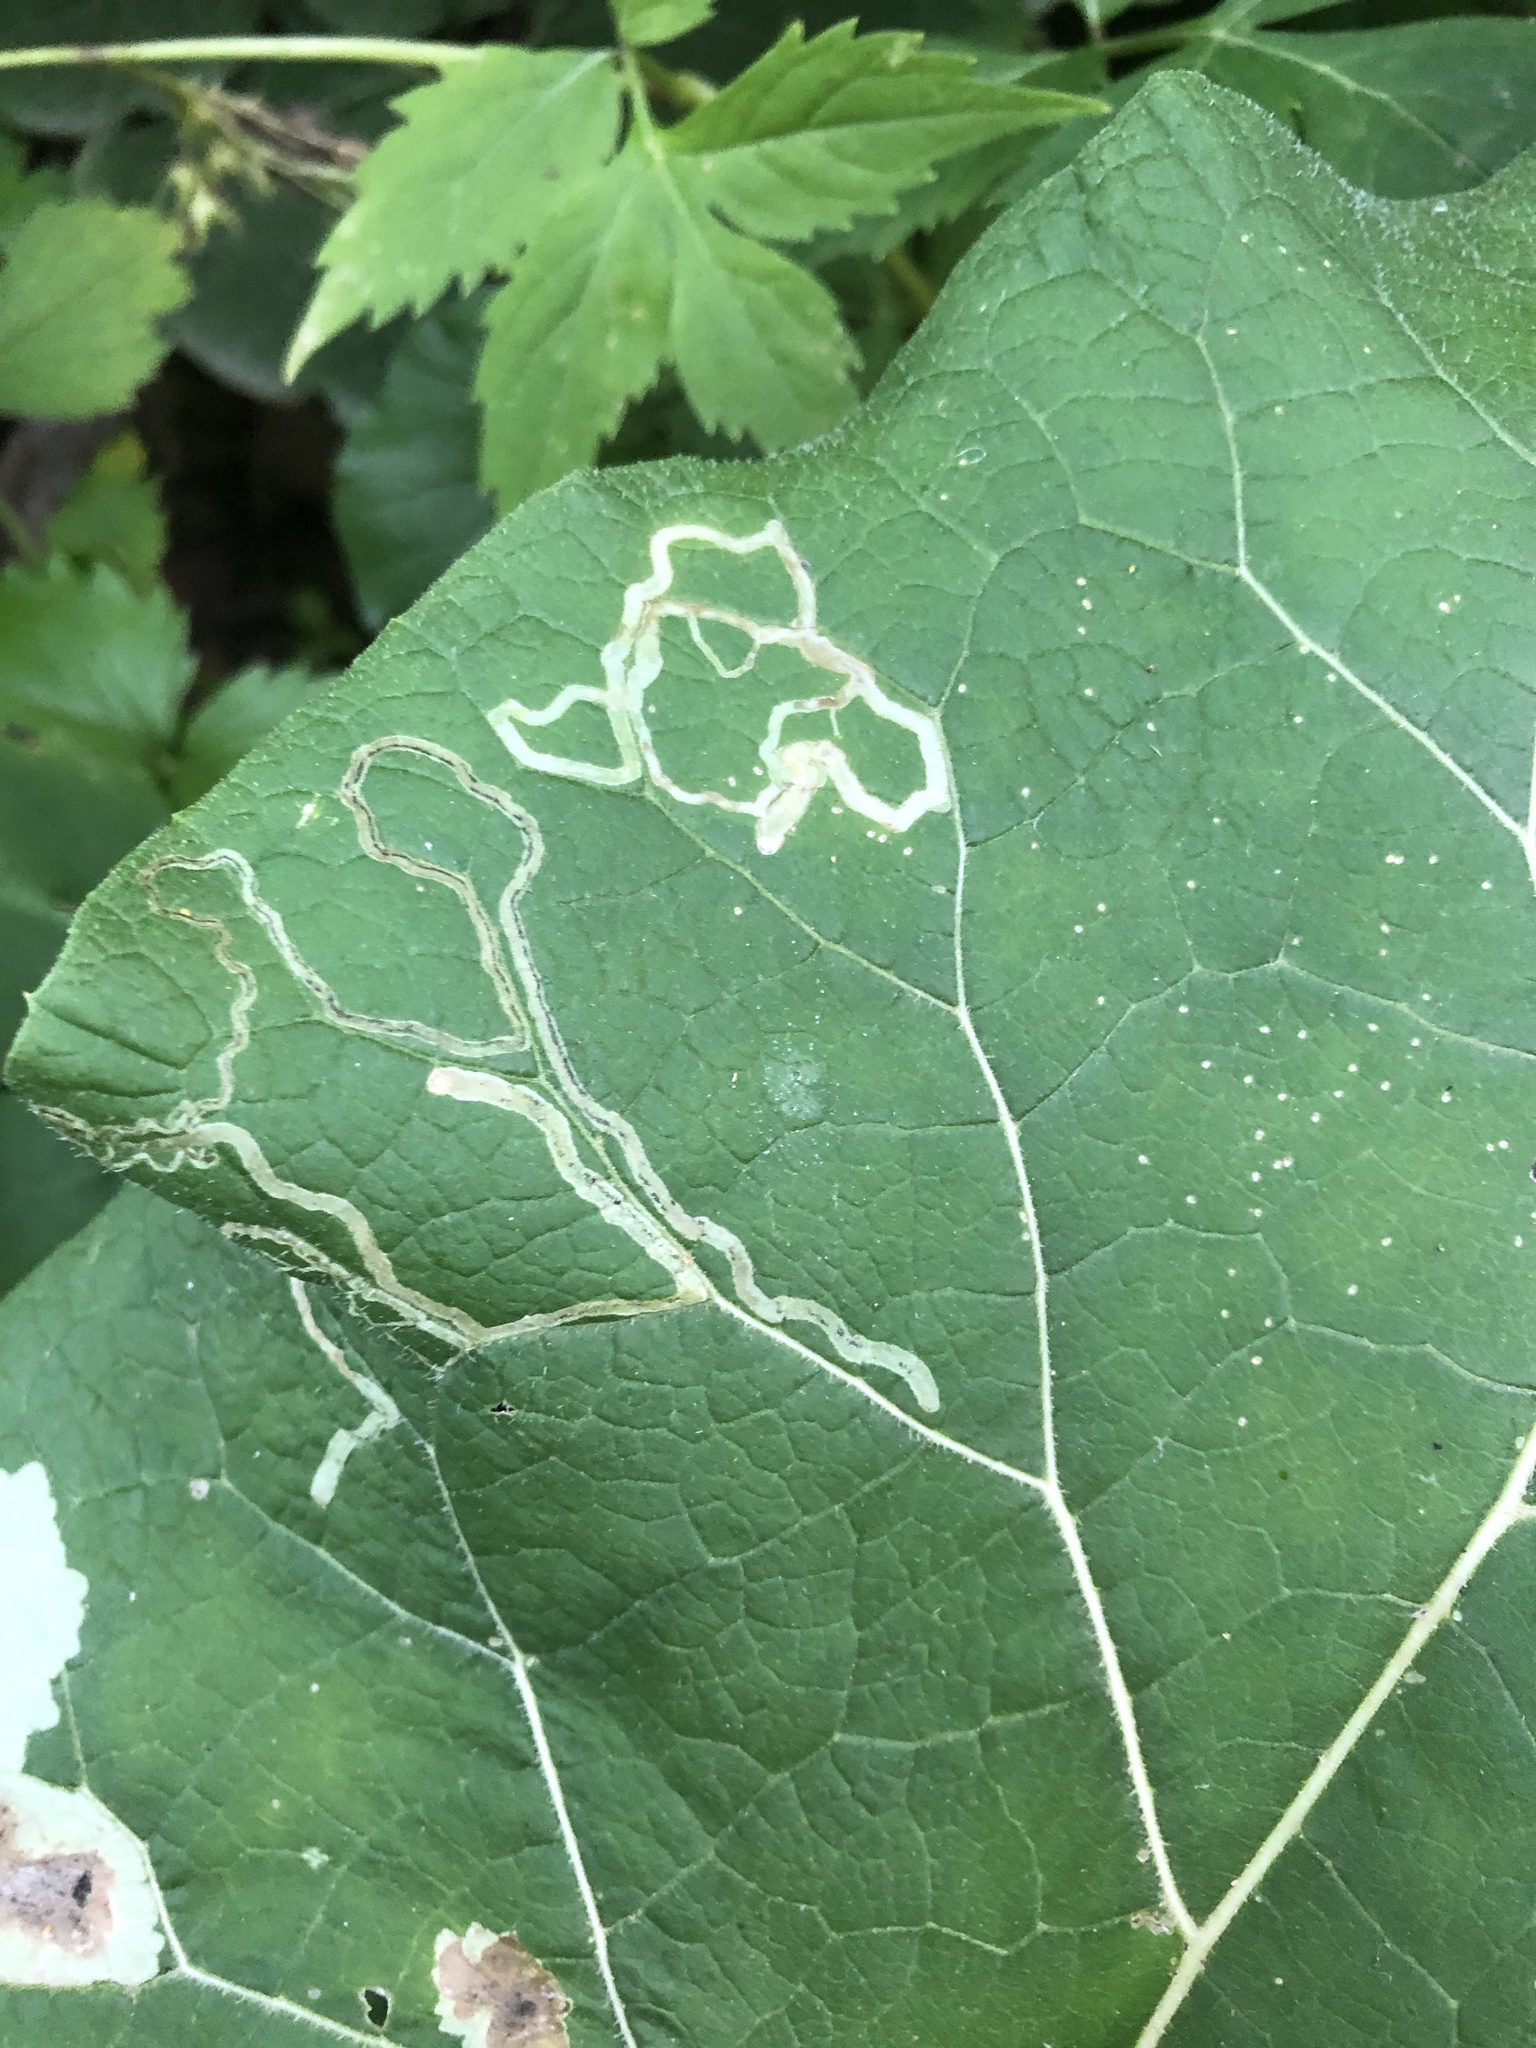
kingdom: Animalia
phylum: Arthropoda
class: Insecta
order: Diptera
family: Agromyzidae
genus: Liriomyza
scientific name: Liriomyza arctii
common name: Burdock leafminer
